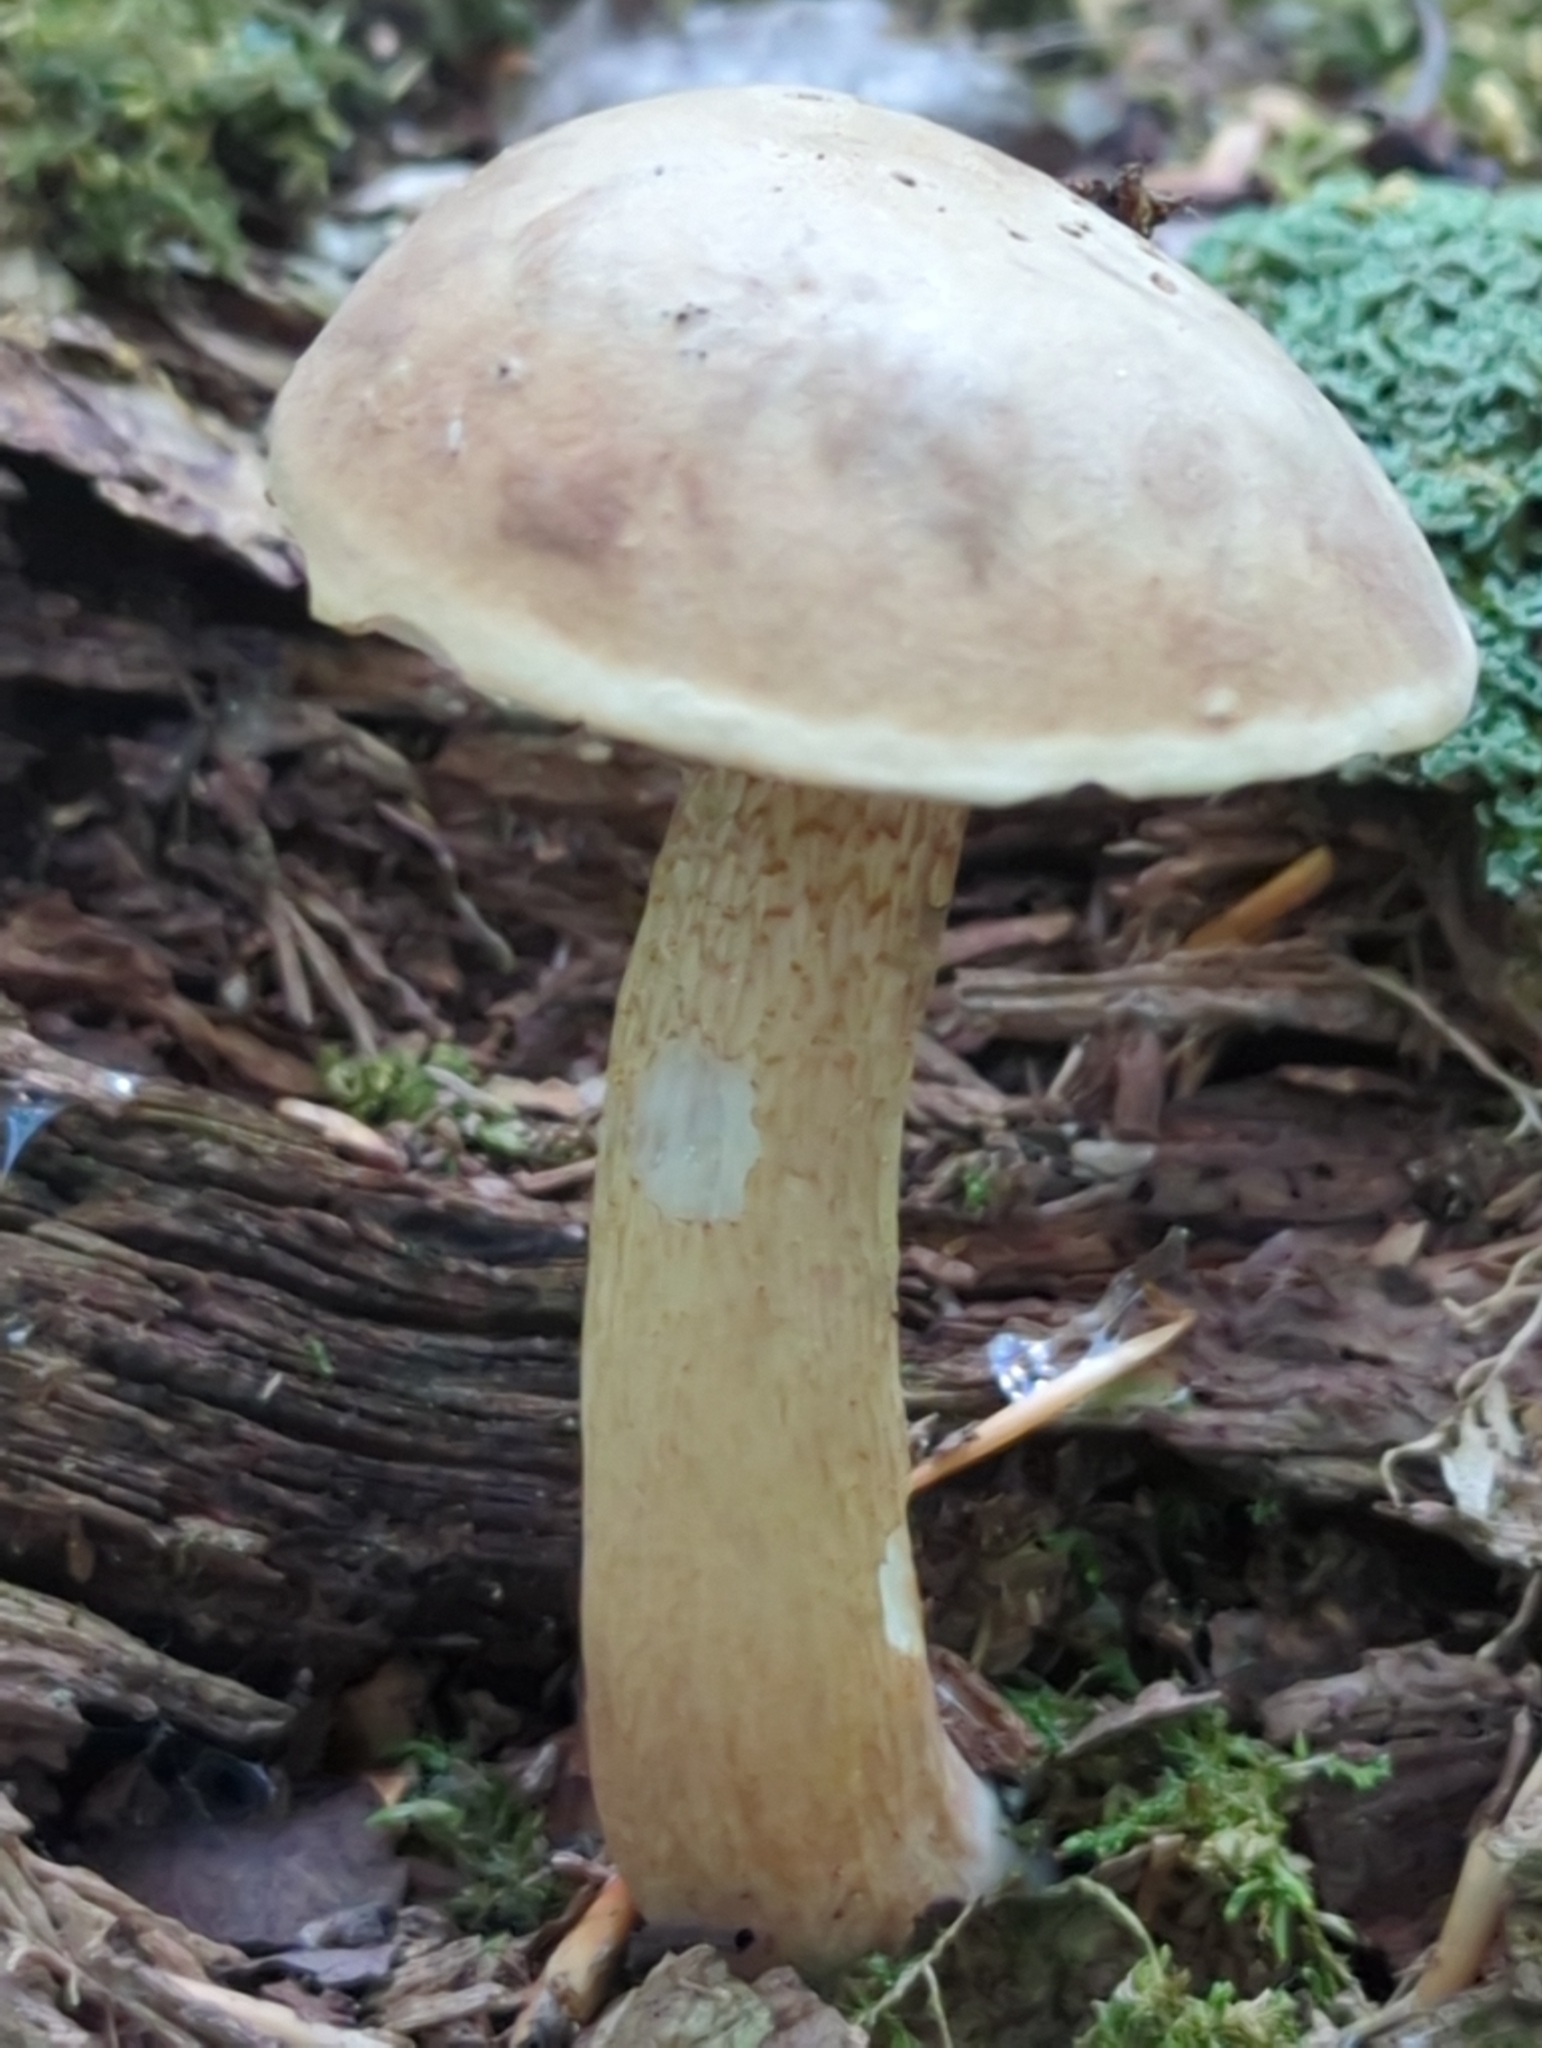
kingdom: Fungi
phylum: Basidiomycota
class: Agaricomycetes
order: Boletales
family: Boletaceae
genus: Tylopilus
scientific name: Tylopilus felleus
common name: Bitter bolete
